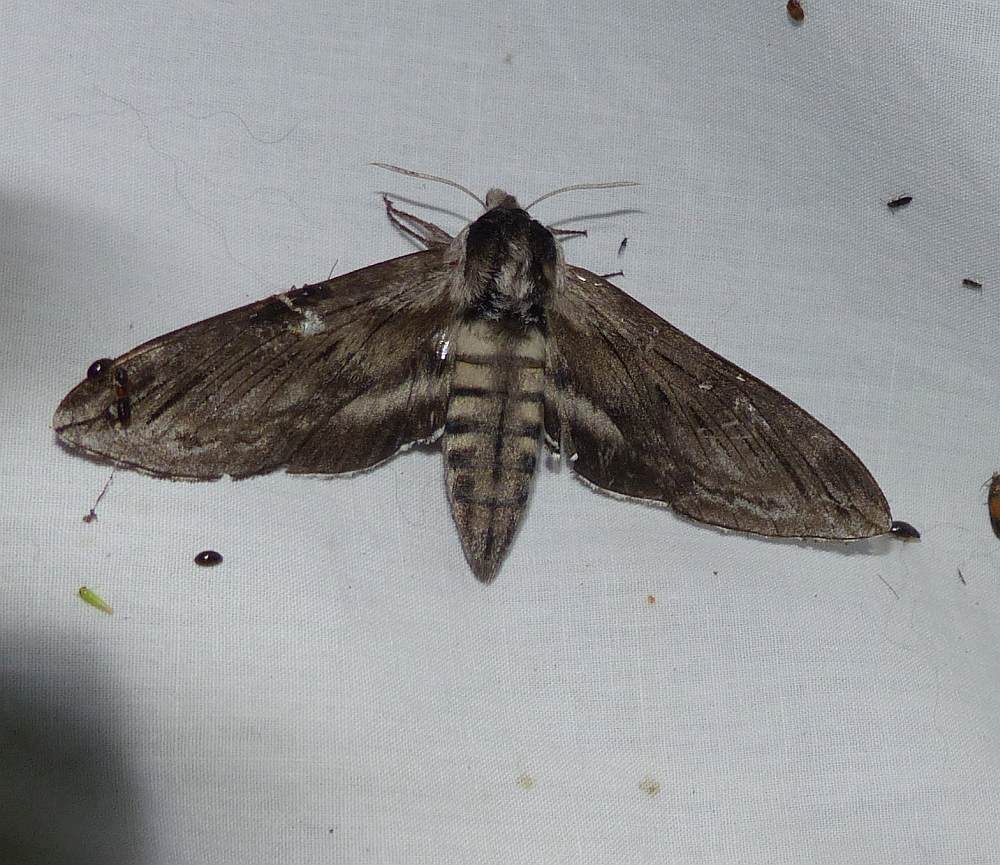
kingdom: Animalia
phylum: Arthropoda
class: Insecta
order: Lepidoptera
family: Sphingidae
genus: Sphinx
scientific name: Sphinx poecila
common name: Northern apple sphinx
